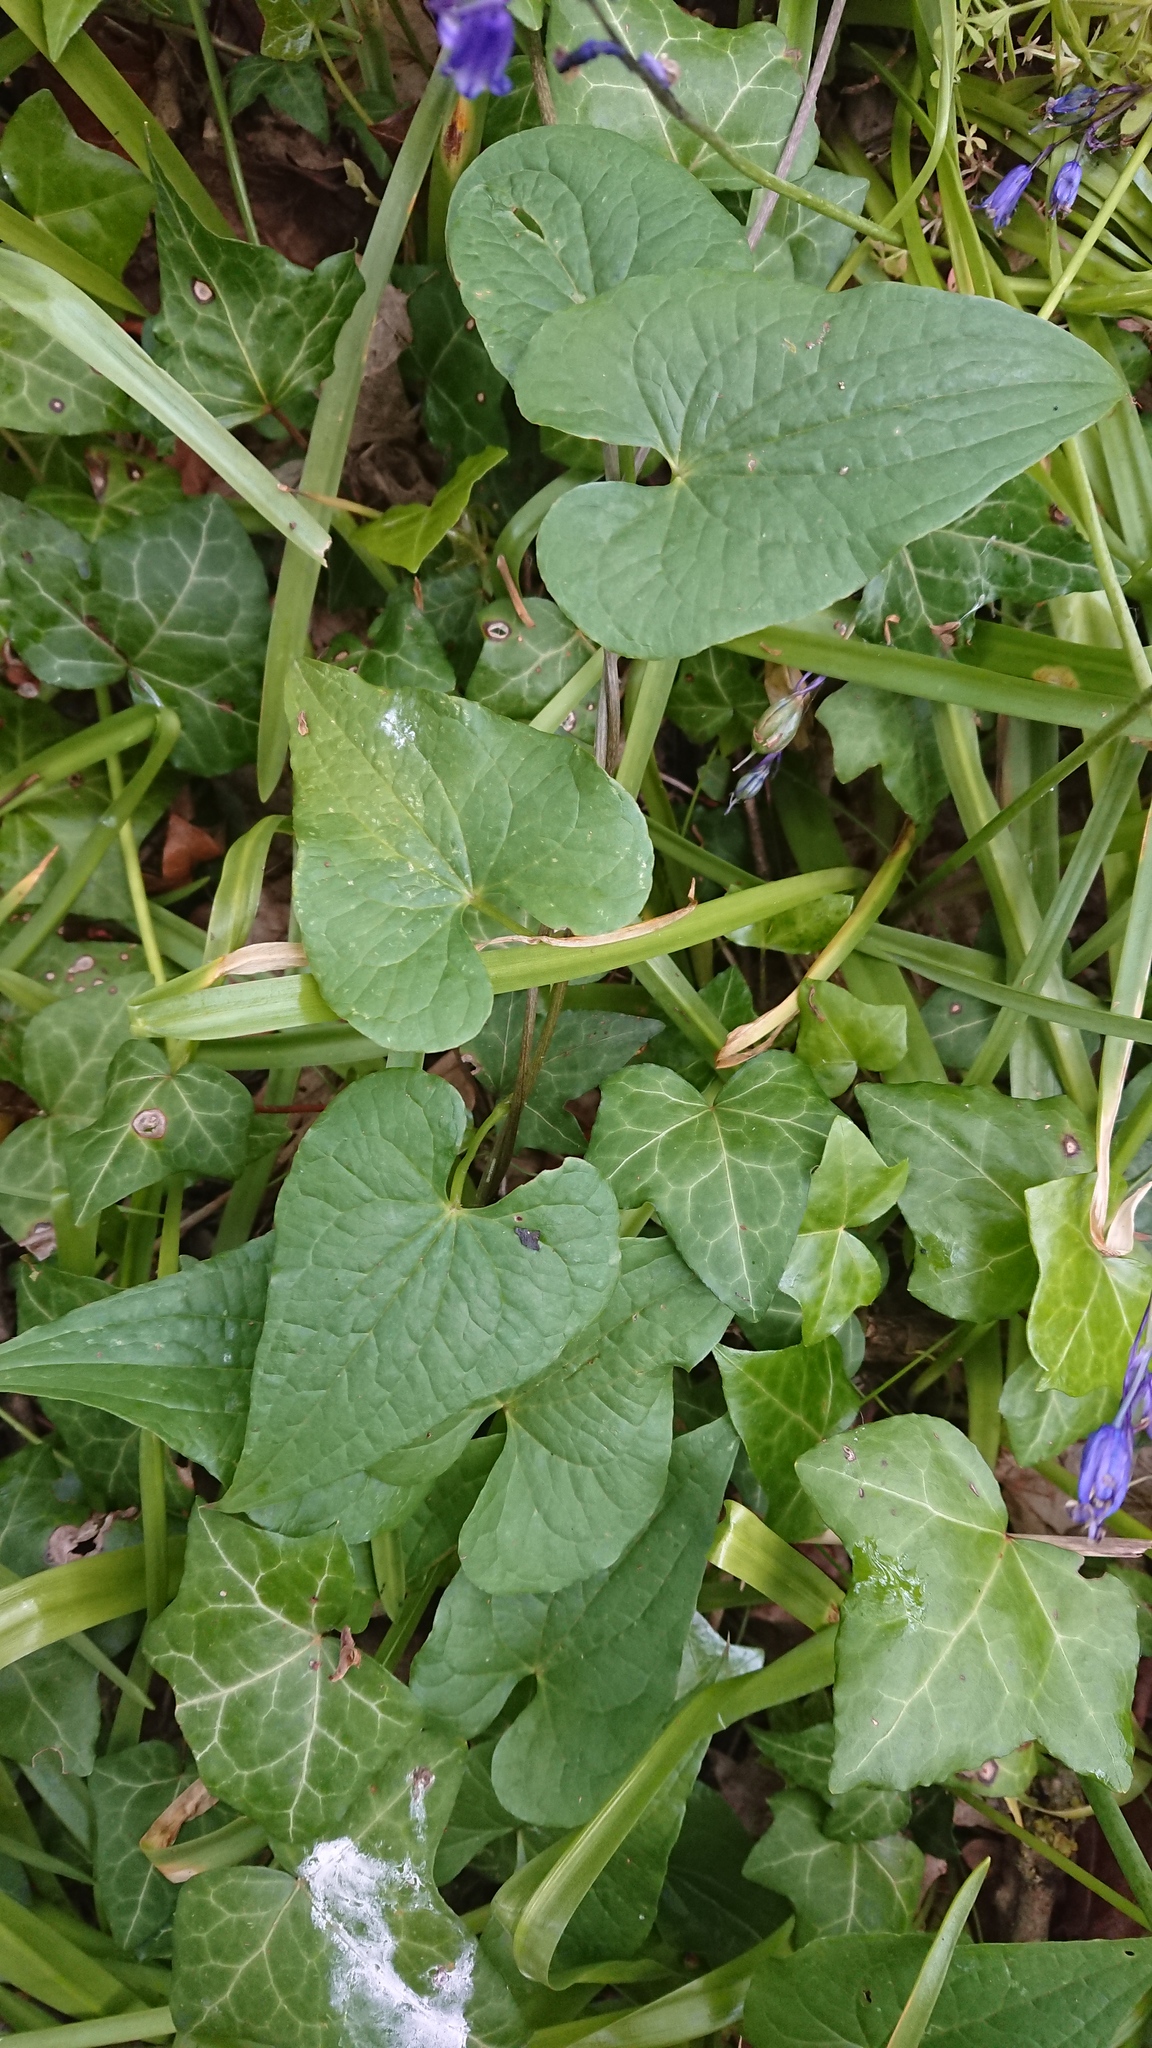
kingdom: Plantae
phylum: Tracheophyta
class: Liliopsida
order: Dioscoreales
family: Dioscoreaceae
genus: Dioscorea
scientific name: Dioscorea communis
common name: Black-bindweed
